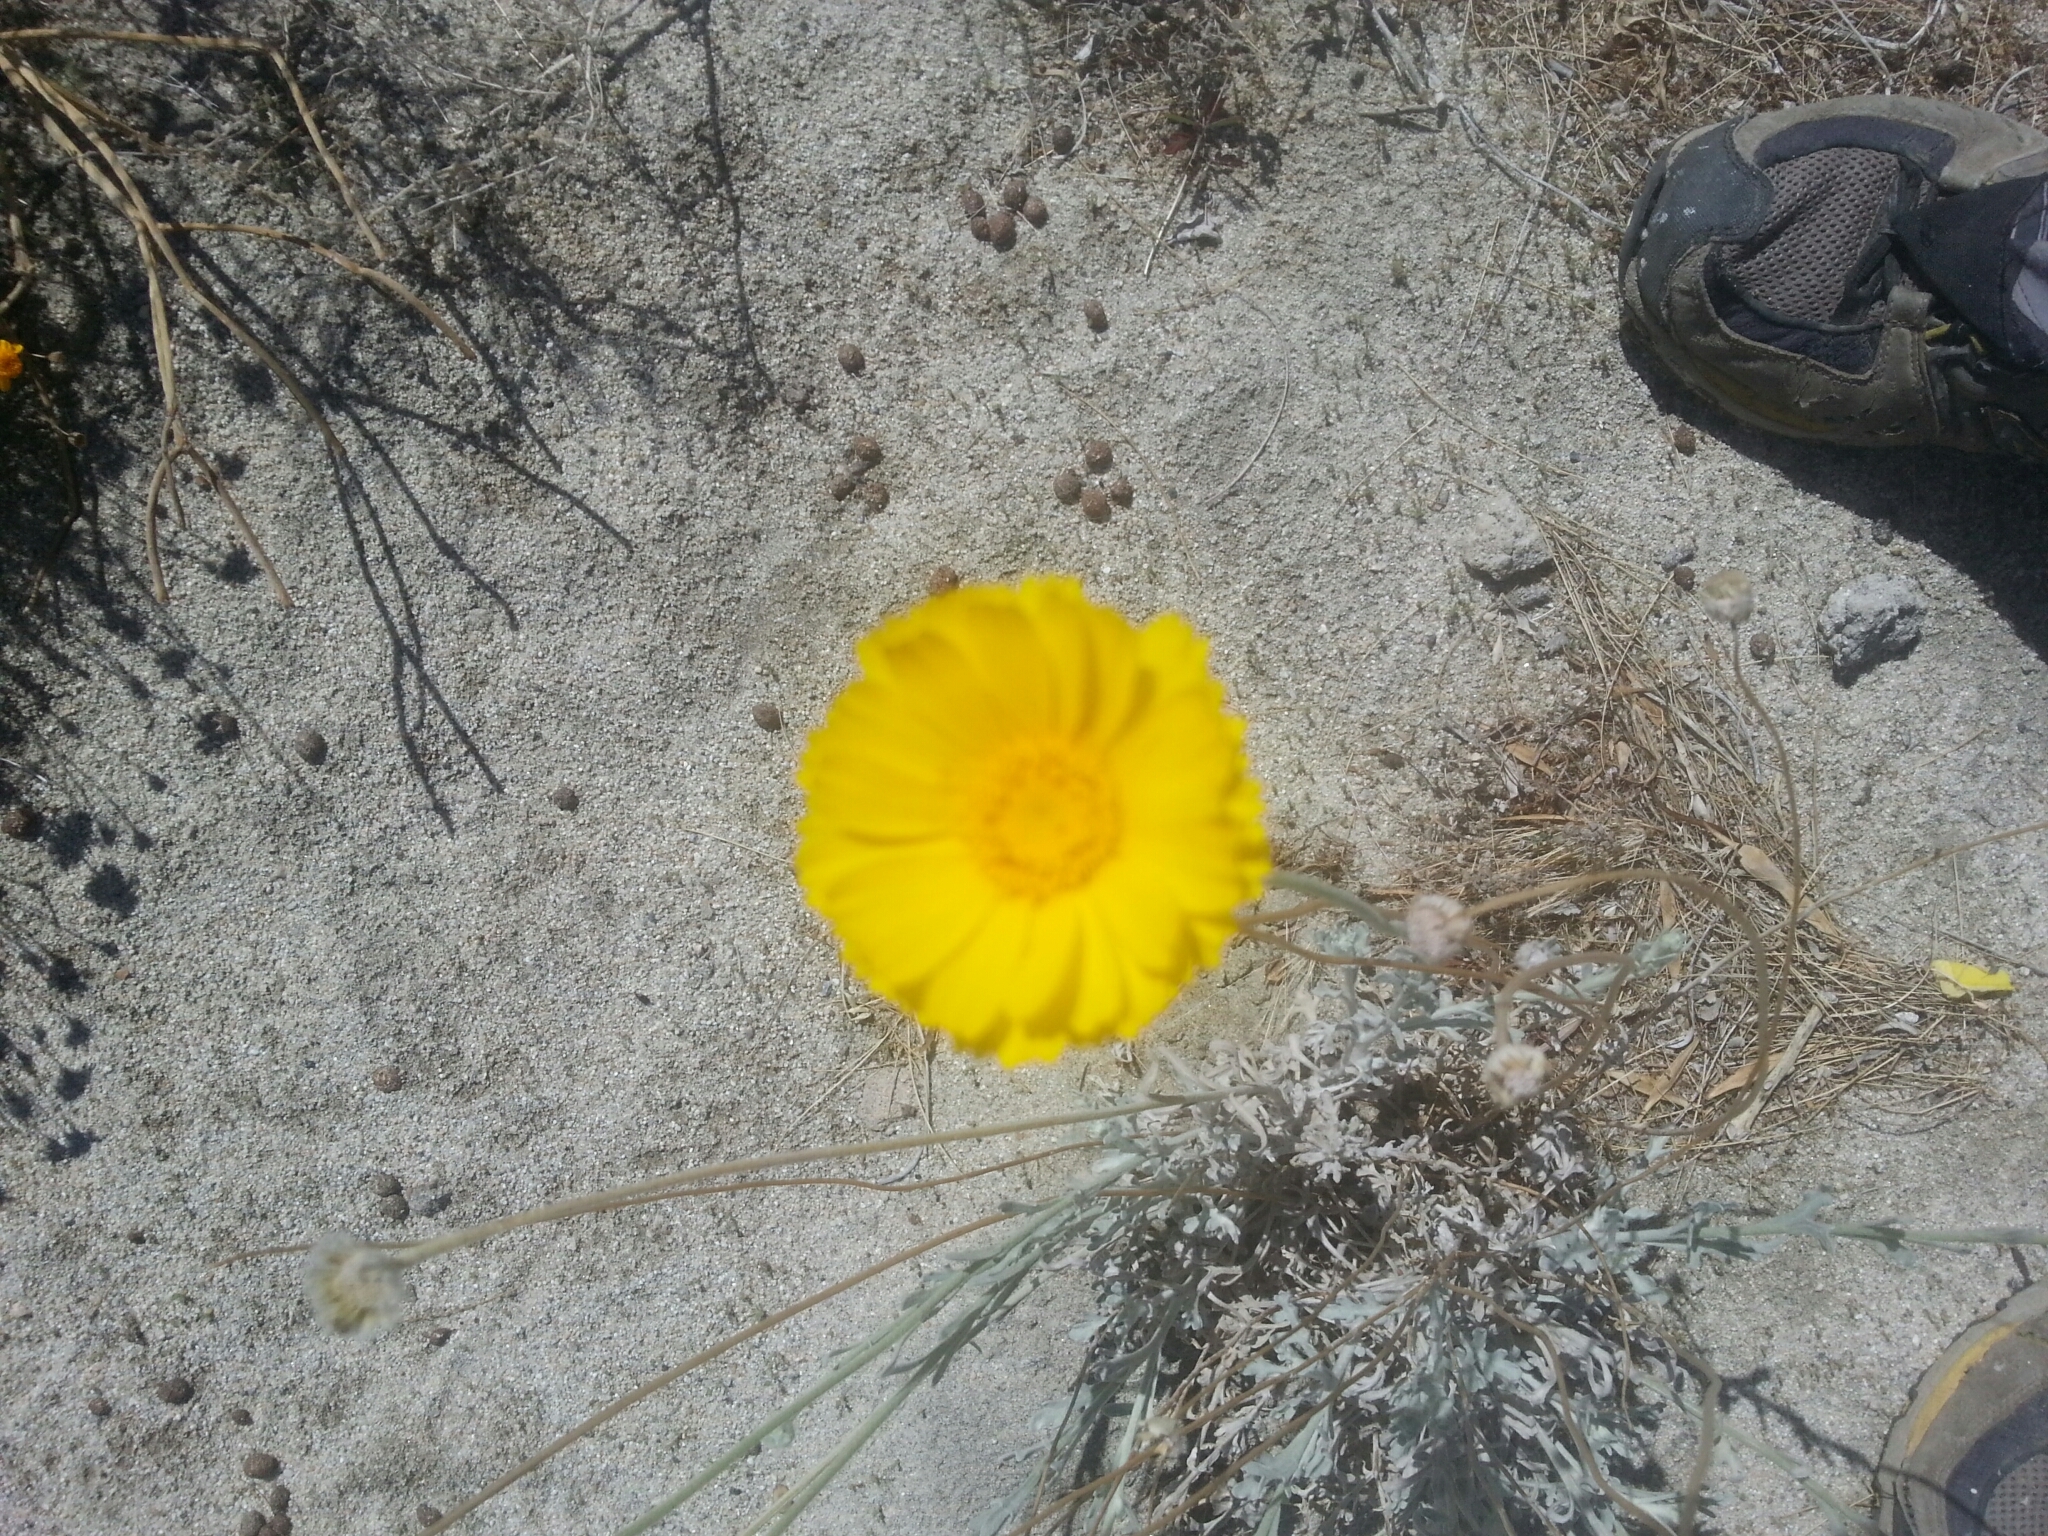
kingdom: Plantae
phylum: Tracheophyta
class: Magnoliopsida
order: Asterales
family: Asteraceae
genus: Baileya
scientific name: Baileya multiradiata
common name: Desert-marigold
